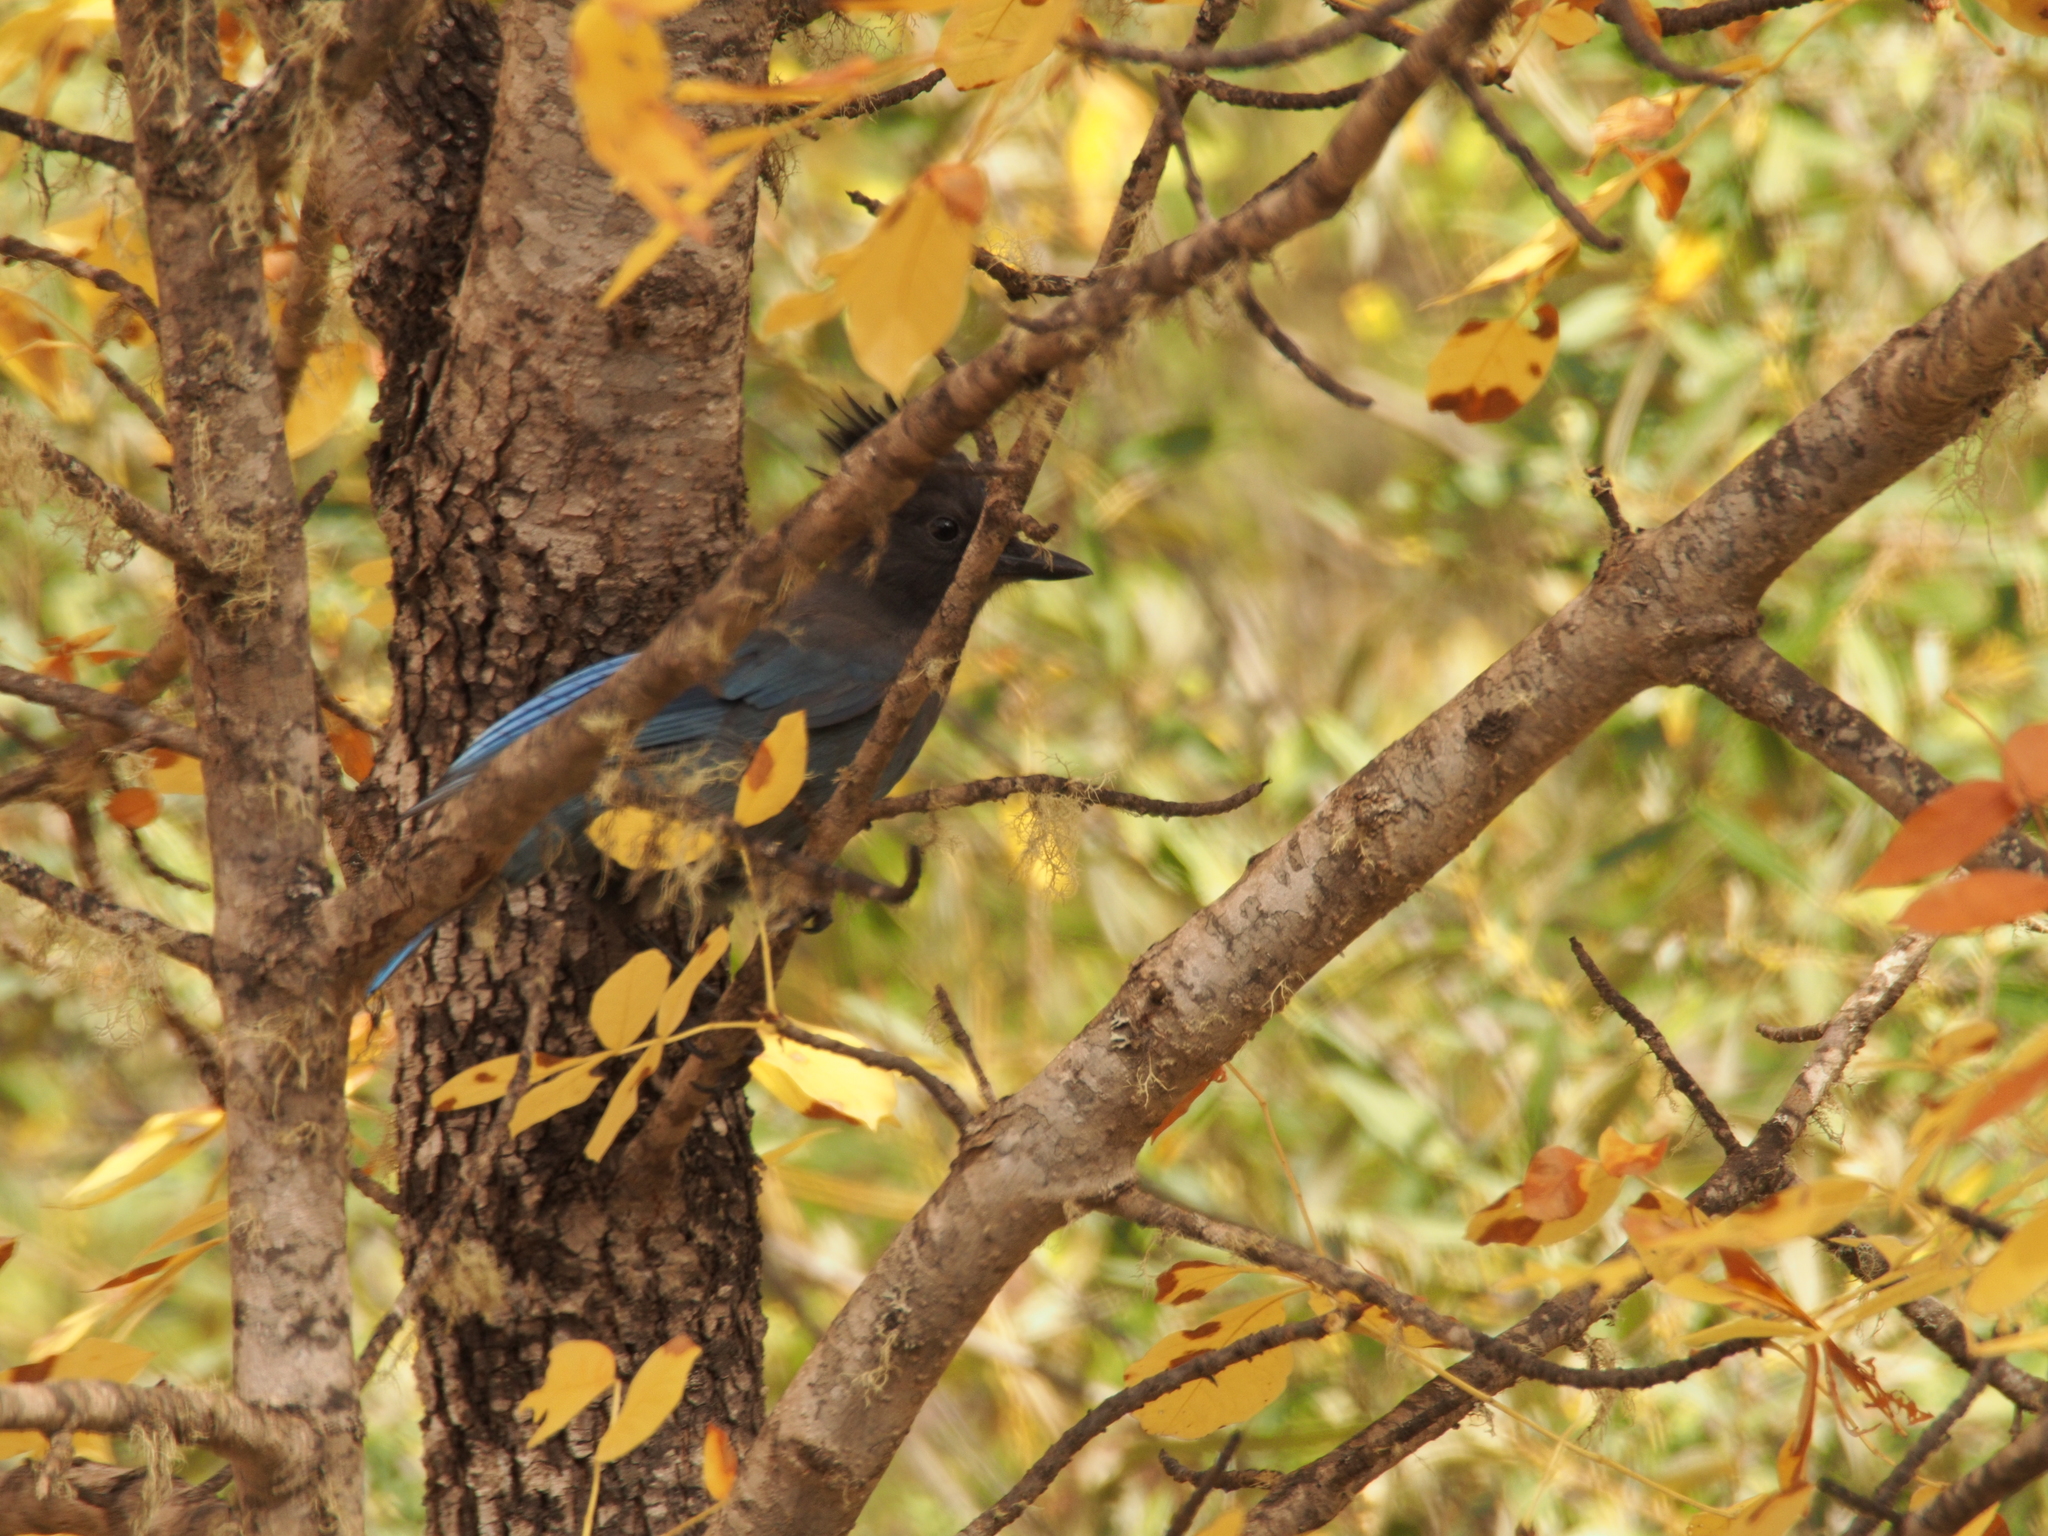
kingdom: Animalia
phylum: Chordata
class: Aves
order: Passeriformes
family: Corvidae
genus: Cyanocitta
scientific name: Cyanocitta stelleri
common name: Steller's jay
